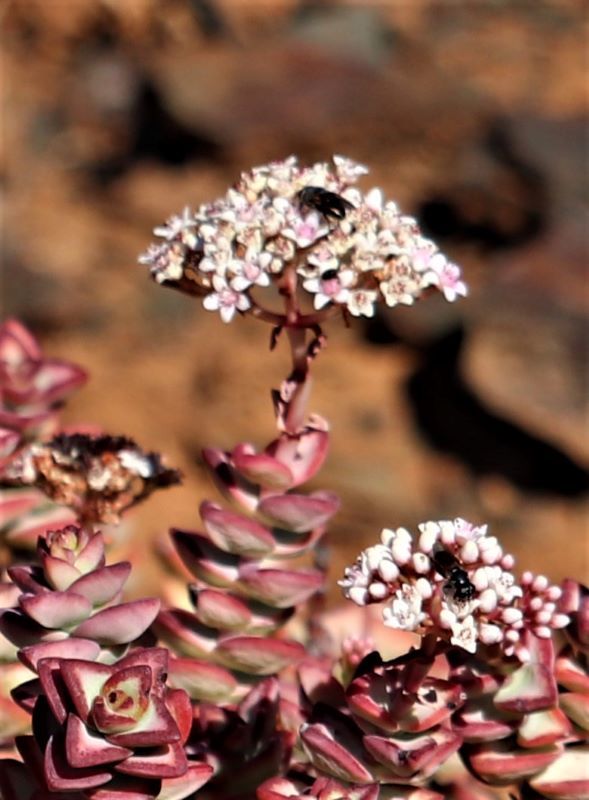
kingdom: Plantae
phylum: Tracheophyta
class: Magnoliopsida
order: Saxifragales
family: Crassulaceae
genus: Crassula
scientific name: Crassula rupestris
